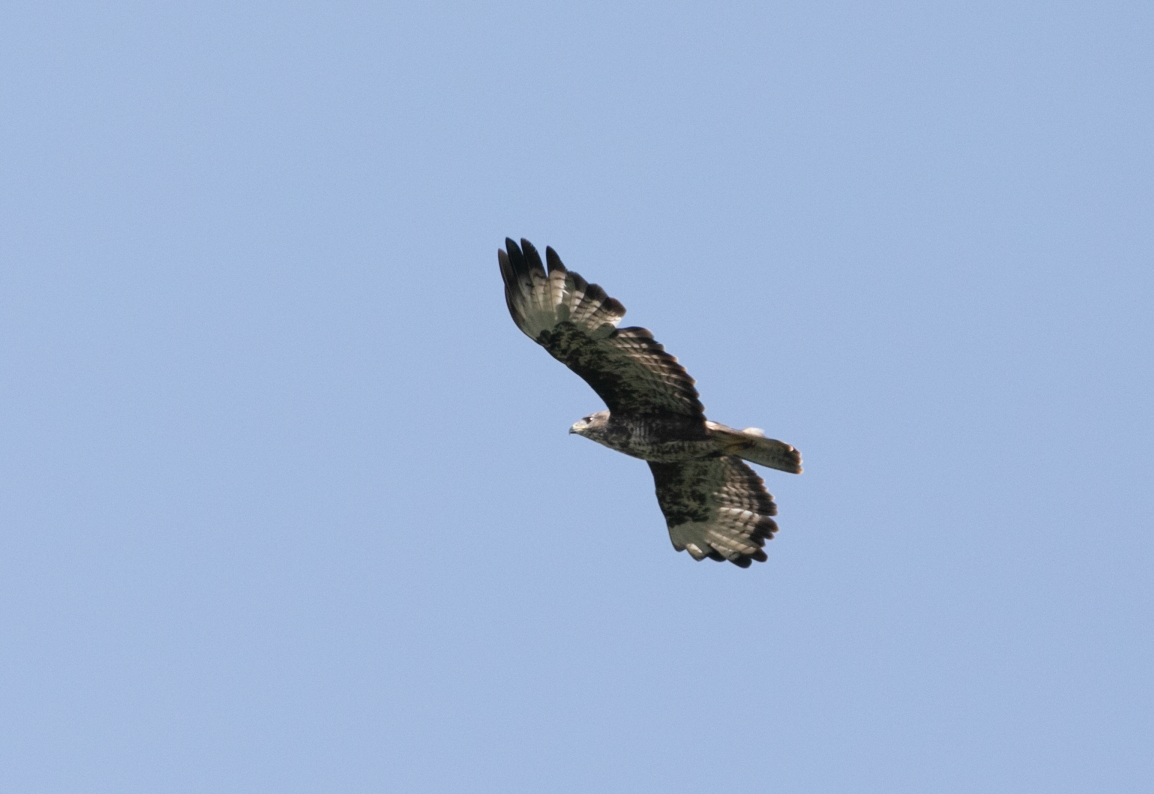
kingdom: Animalia
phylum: Chordata
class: Aves
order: Accipitriformes
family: Accipitridae
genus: Buteo
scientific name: Buteo buteo
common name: Common buzzard
